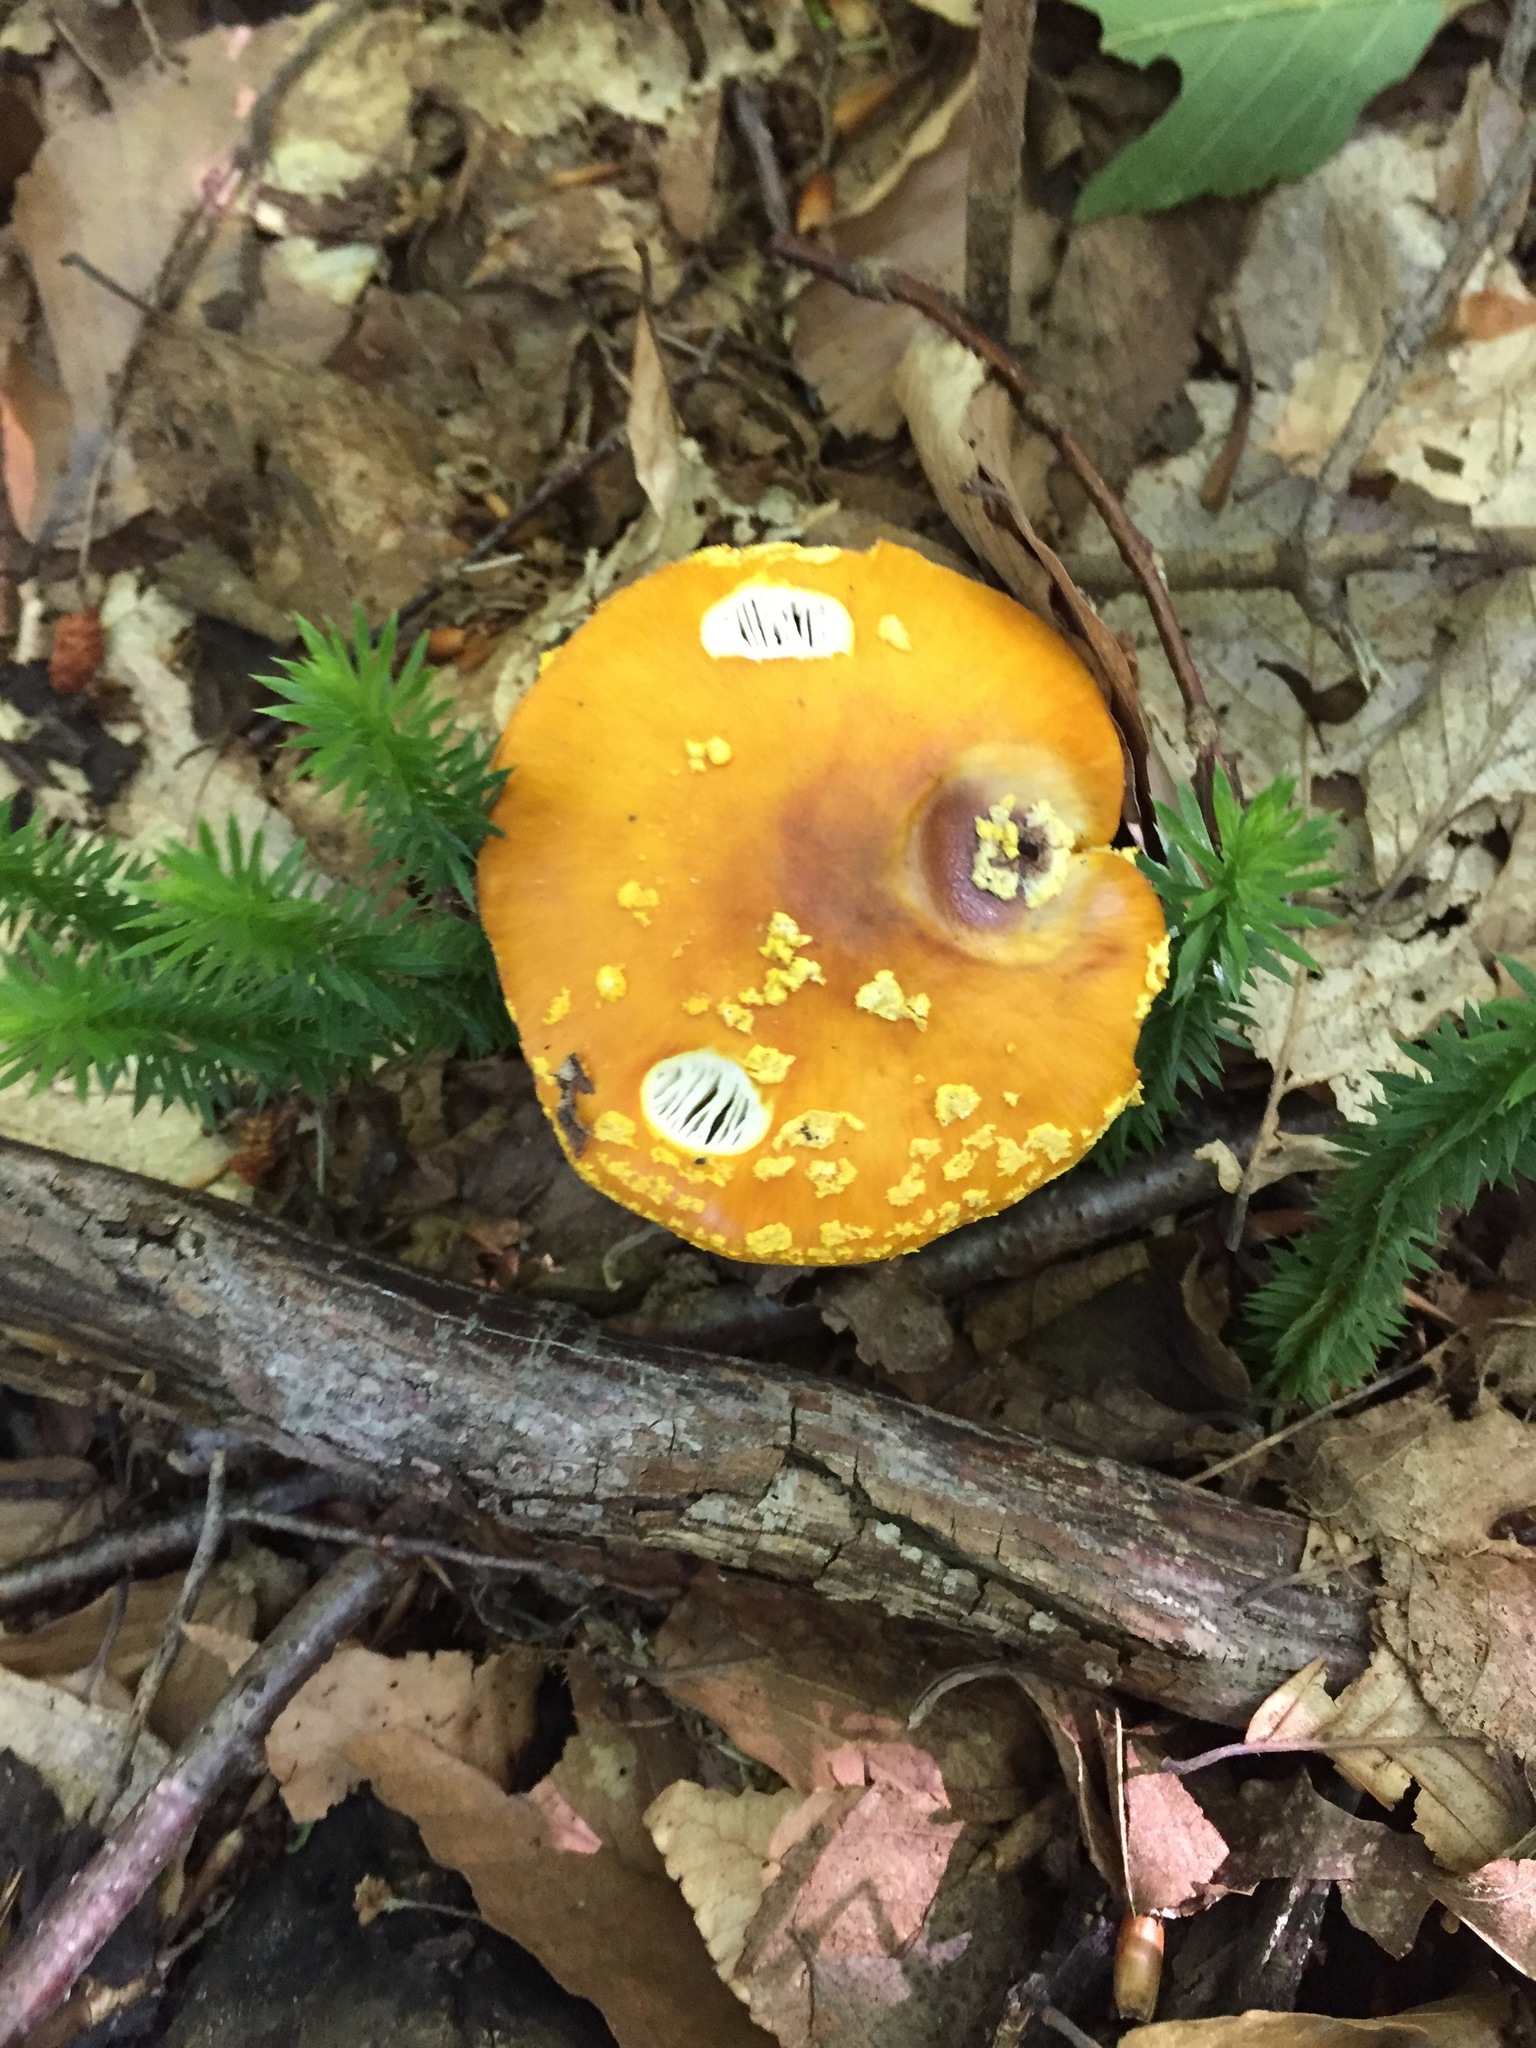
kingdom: Fungi
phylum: Basidiomycota
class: Agaricomycetes
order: Agaricales
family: Amanitaceae
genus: Amanita
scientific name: Amanita flavoconia
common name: Yellow patches
